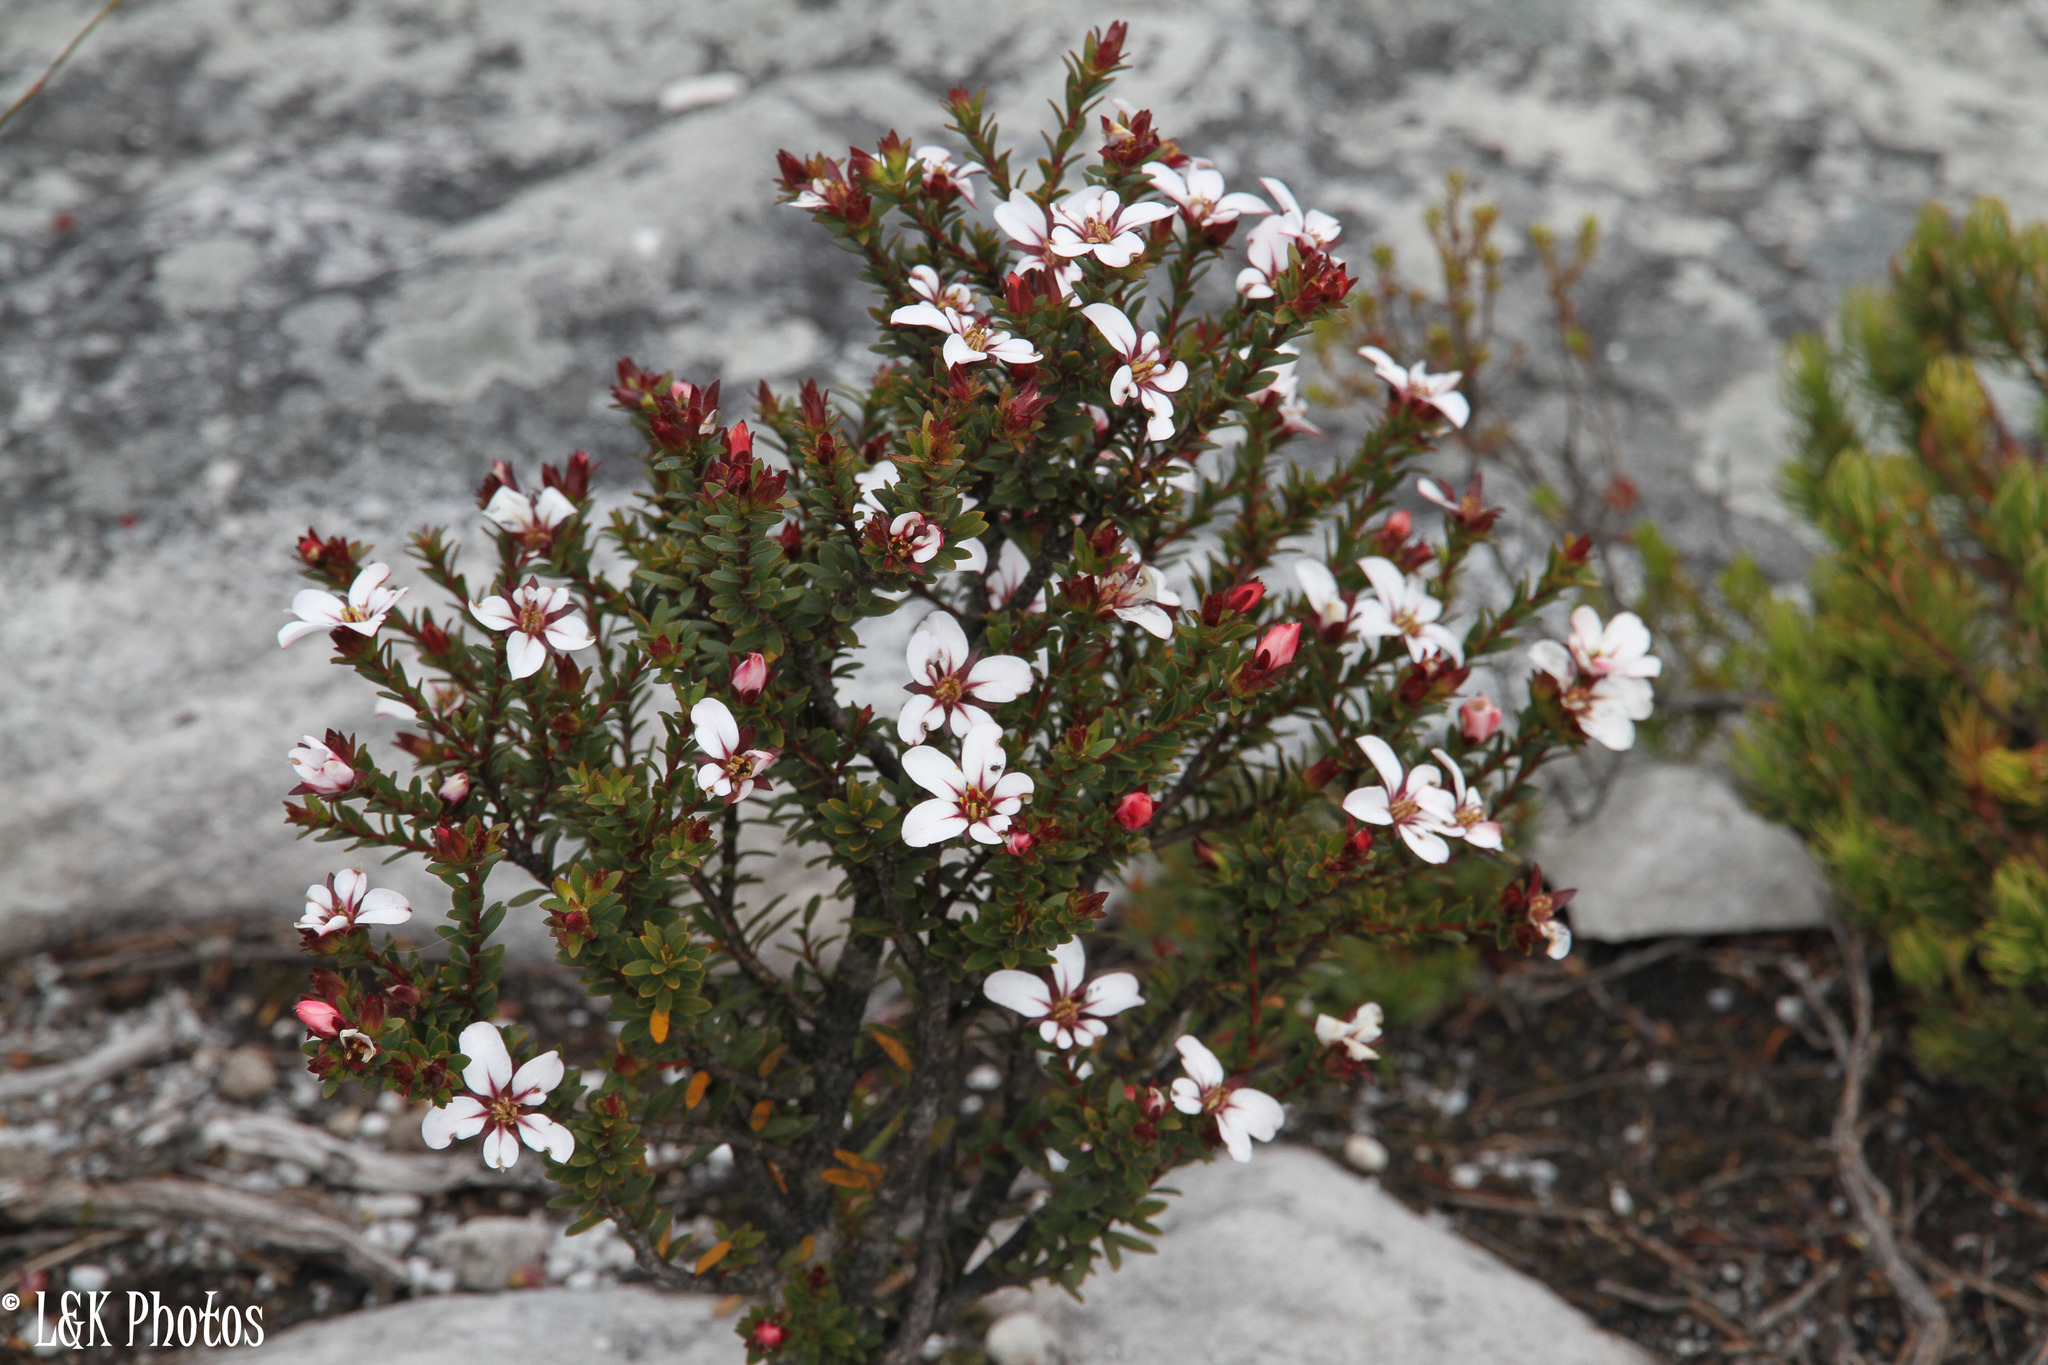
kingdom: Plantae
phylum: Tracheophyta
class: Magnoliopsida
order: Sapindales
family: Rutaceae
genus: Adenandra
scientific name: Adenandra villosa
